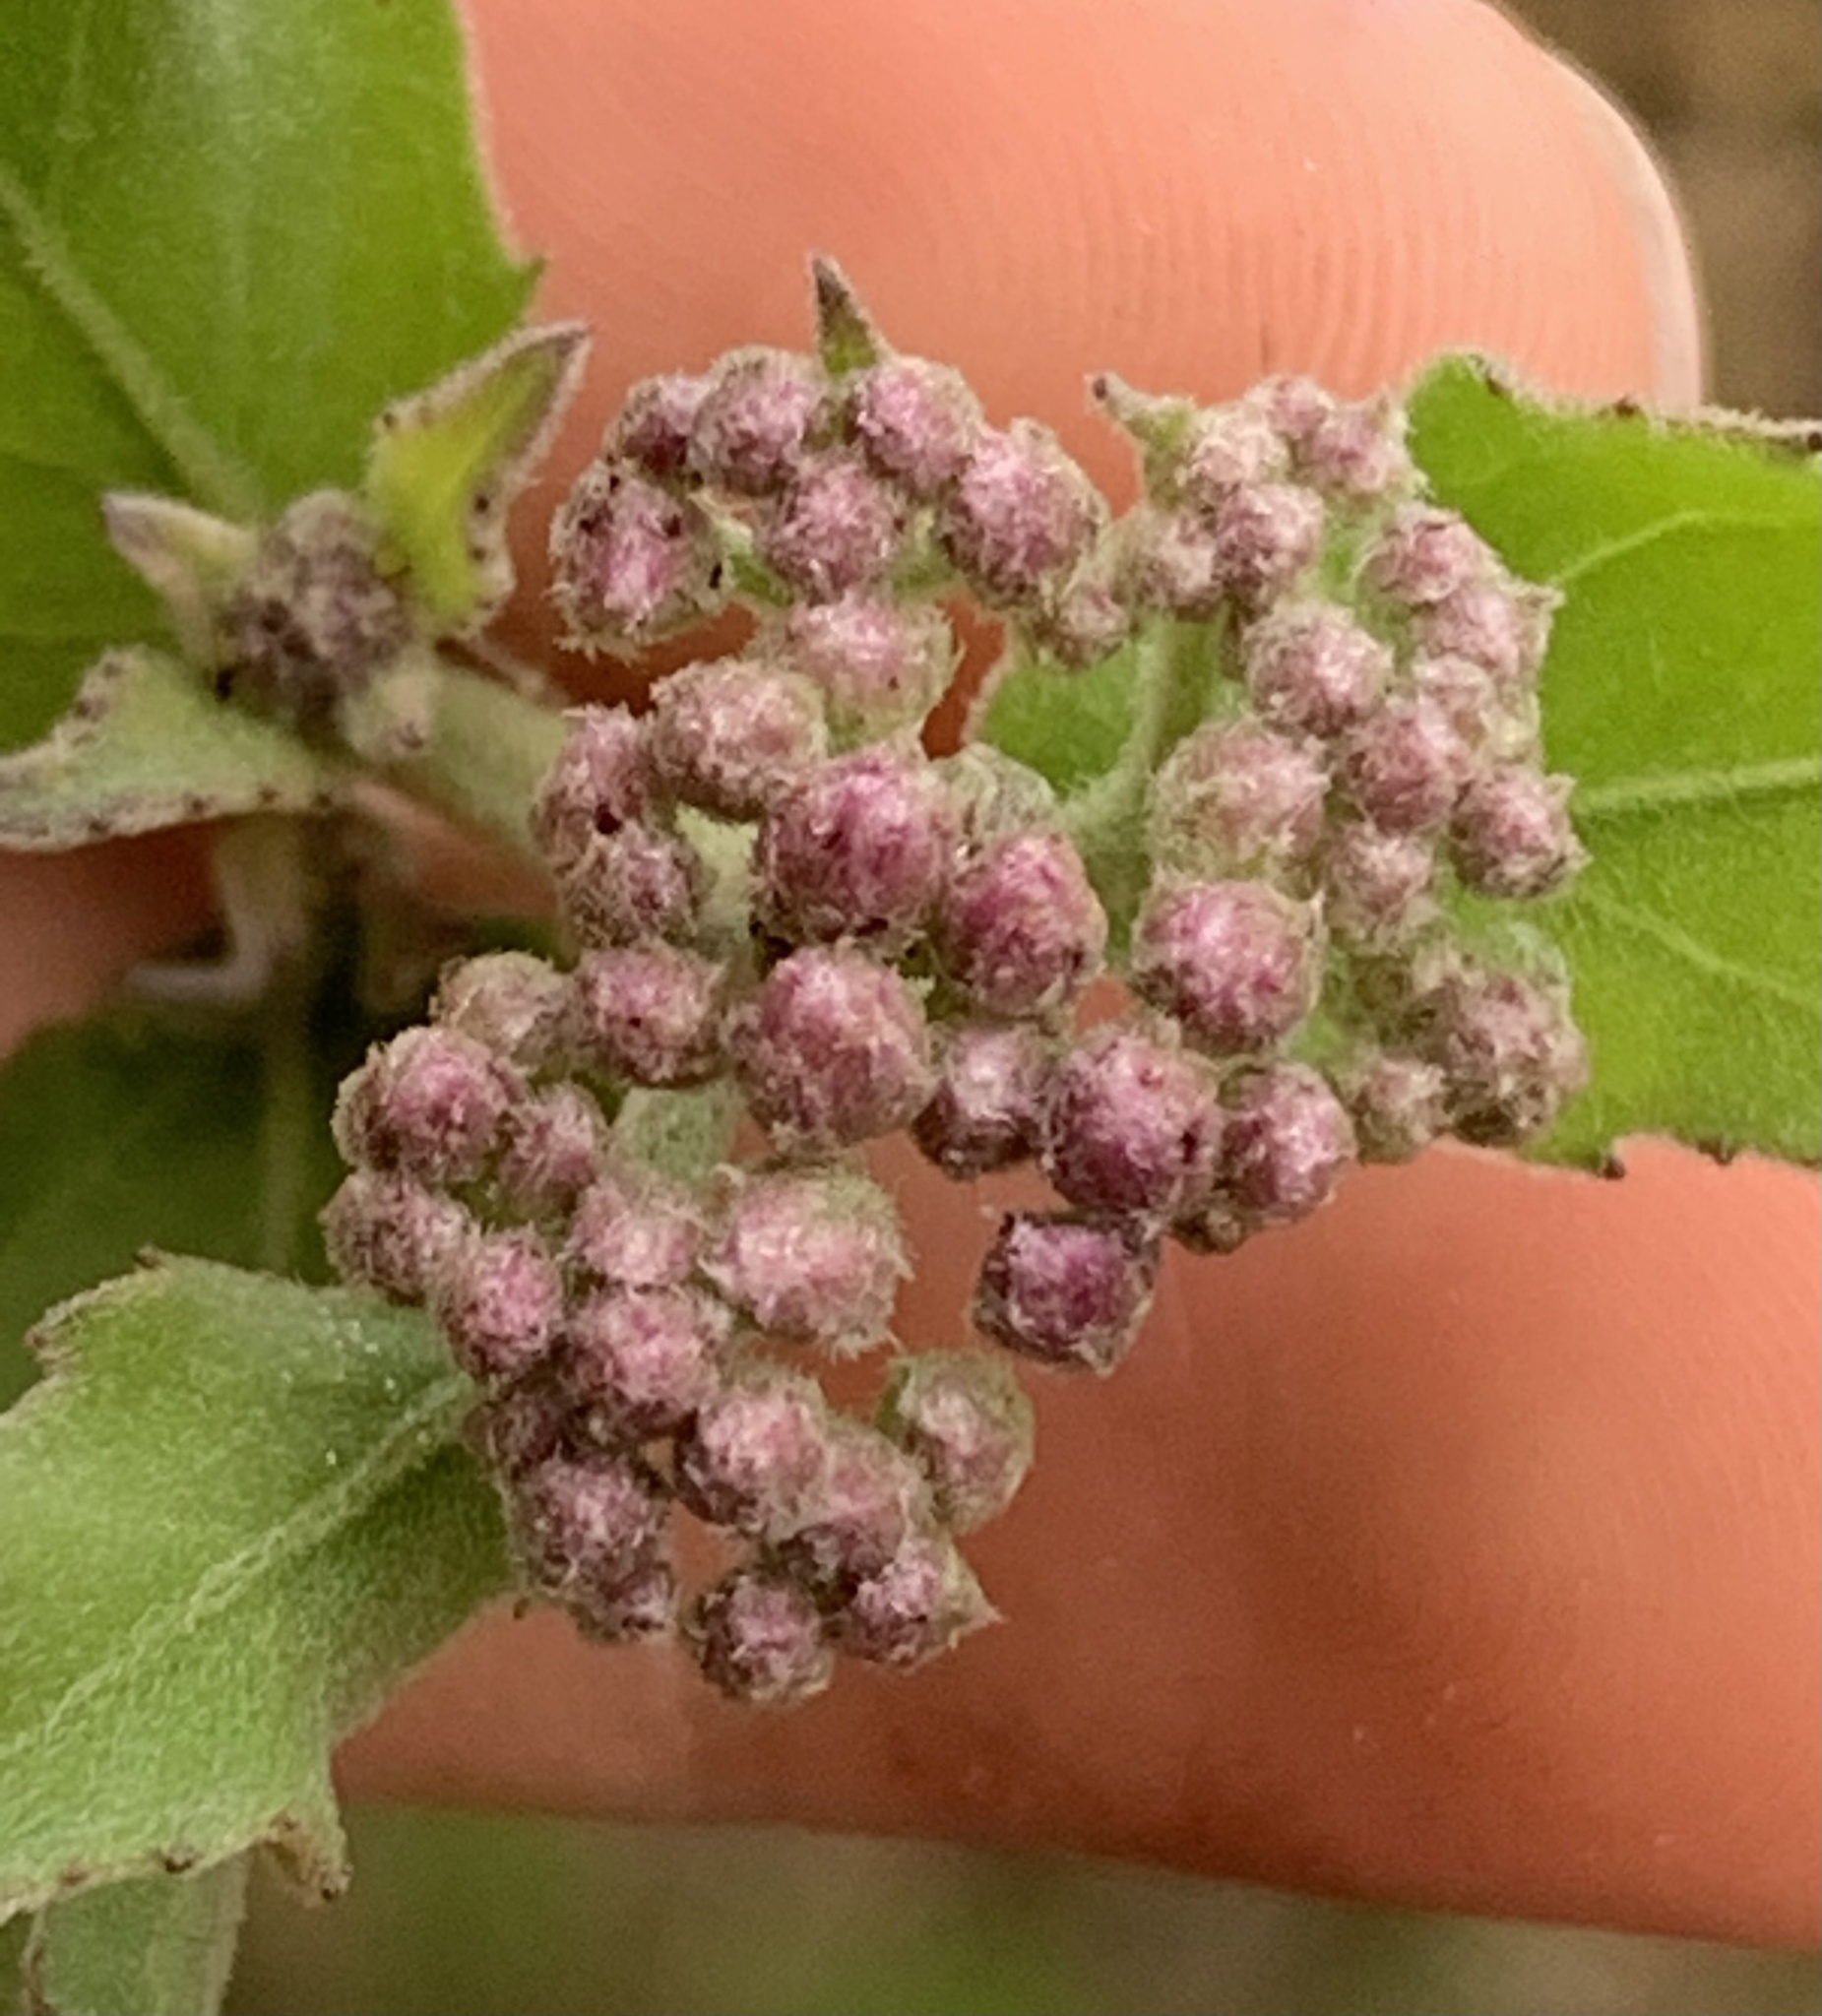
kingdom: Plantae
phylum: Tracheophyta
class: Magnoliopsida
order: Asterales
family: Asteraceae
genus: Pluchea
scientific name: Pluchea odorata
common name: Saltmarsh fleabane
